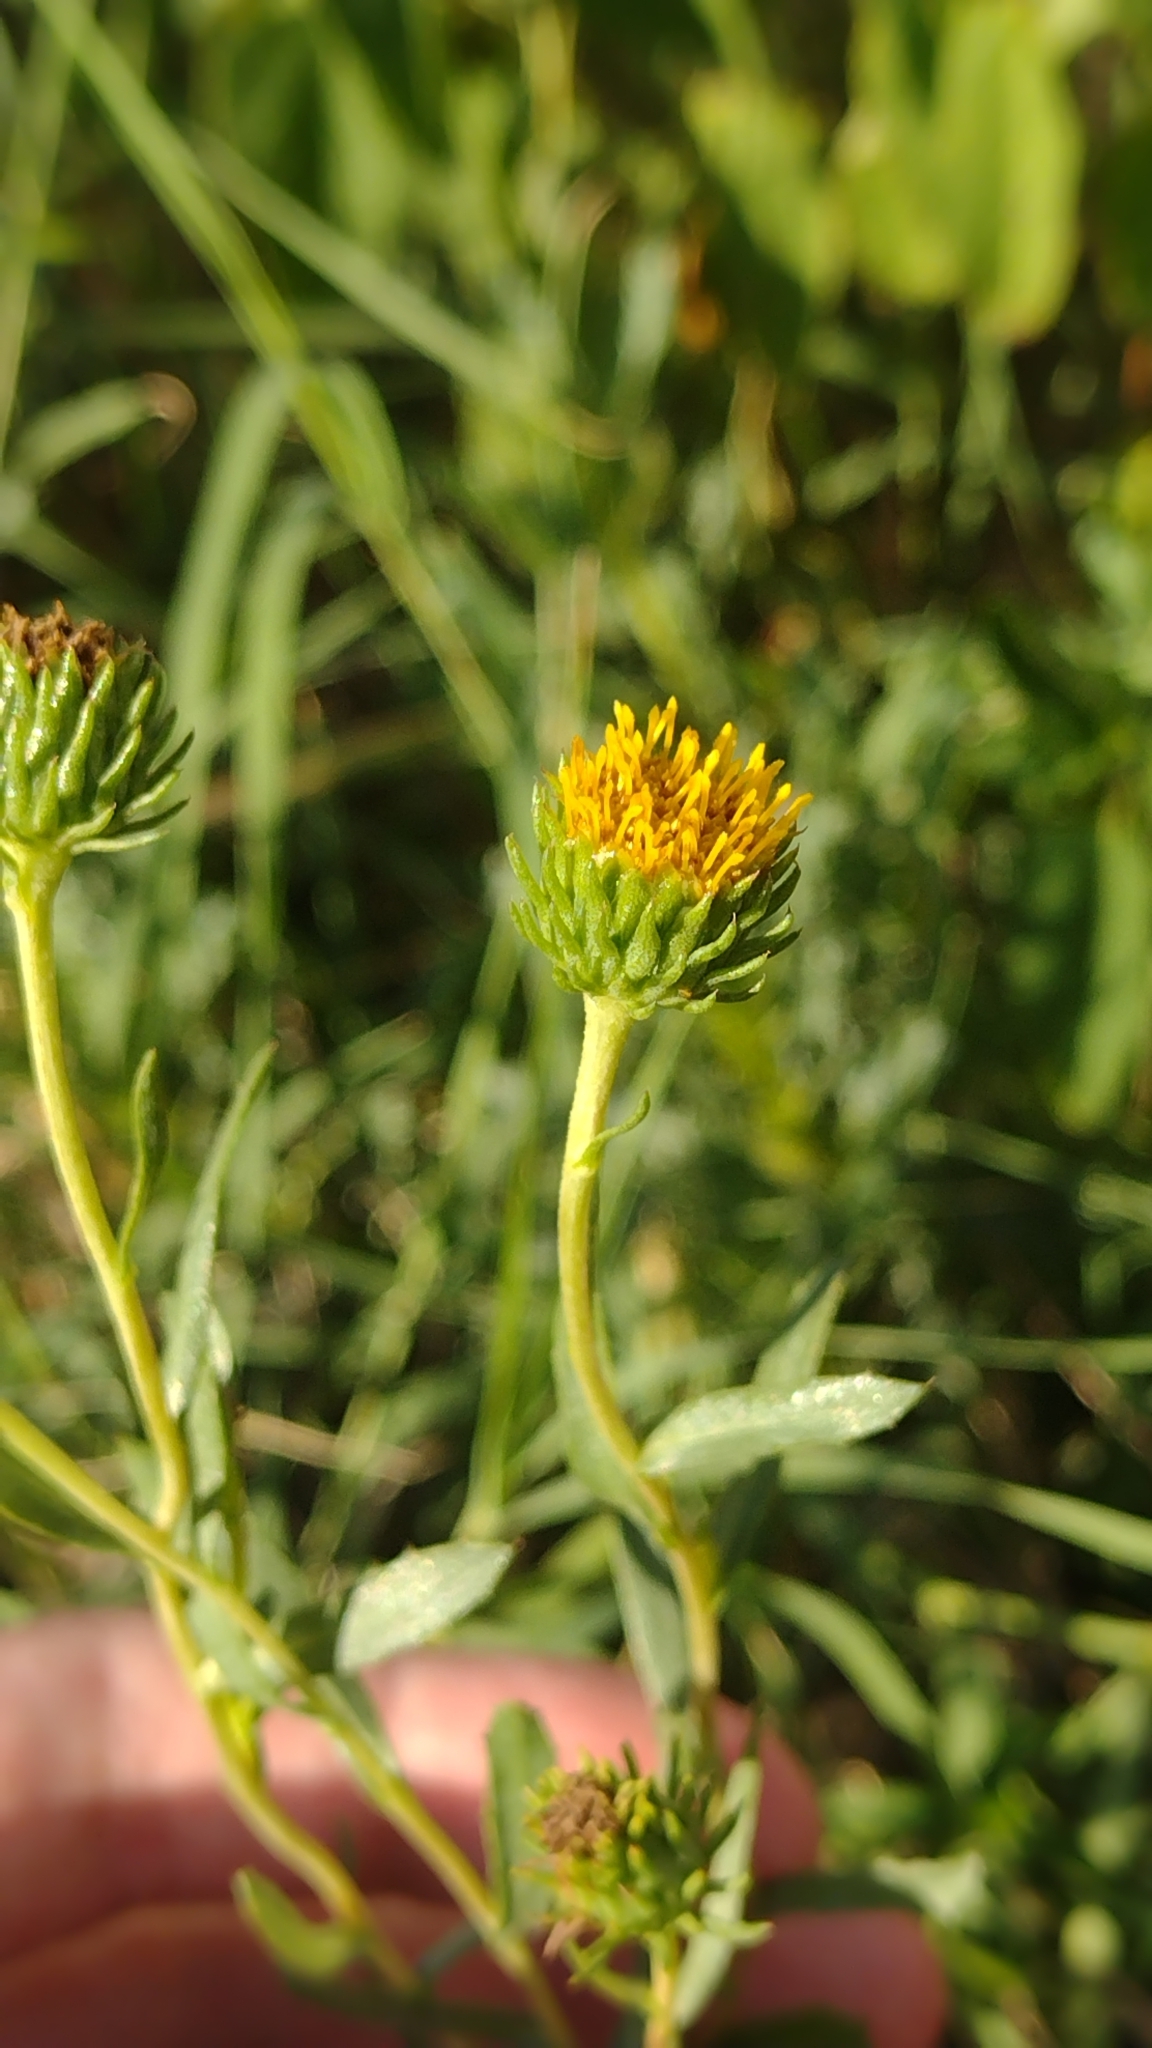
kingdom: Plantae
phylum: Tracheophyta
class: Magnoliopsida
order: Asterales
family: Asteraceae
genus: Grindelia
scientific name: Grindelia pulchella
